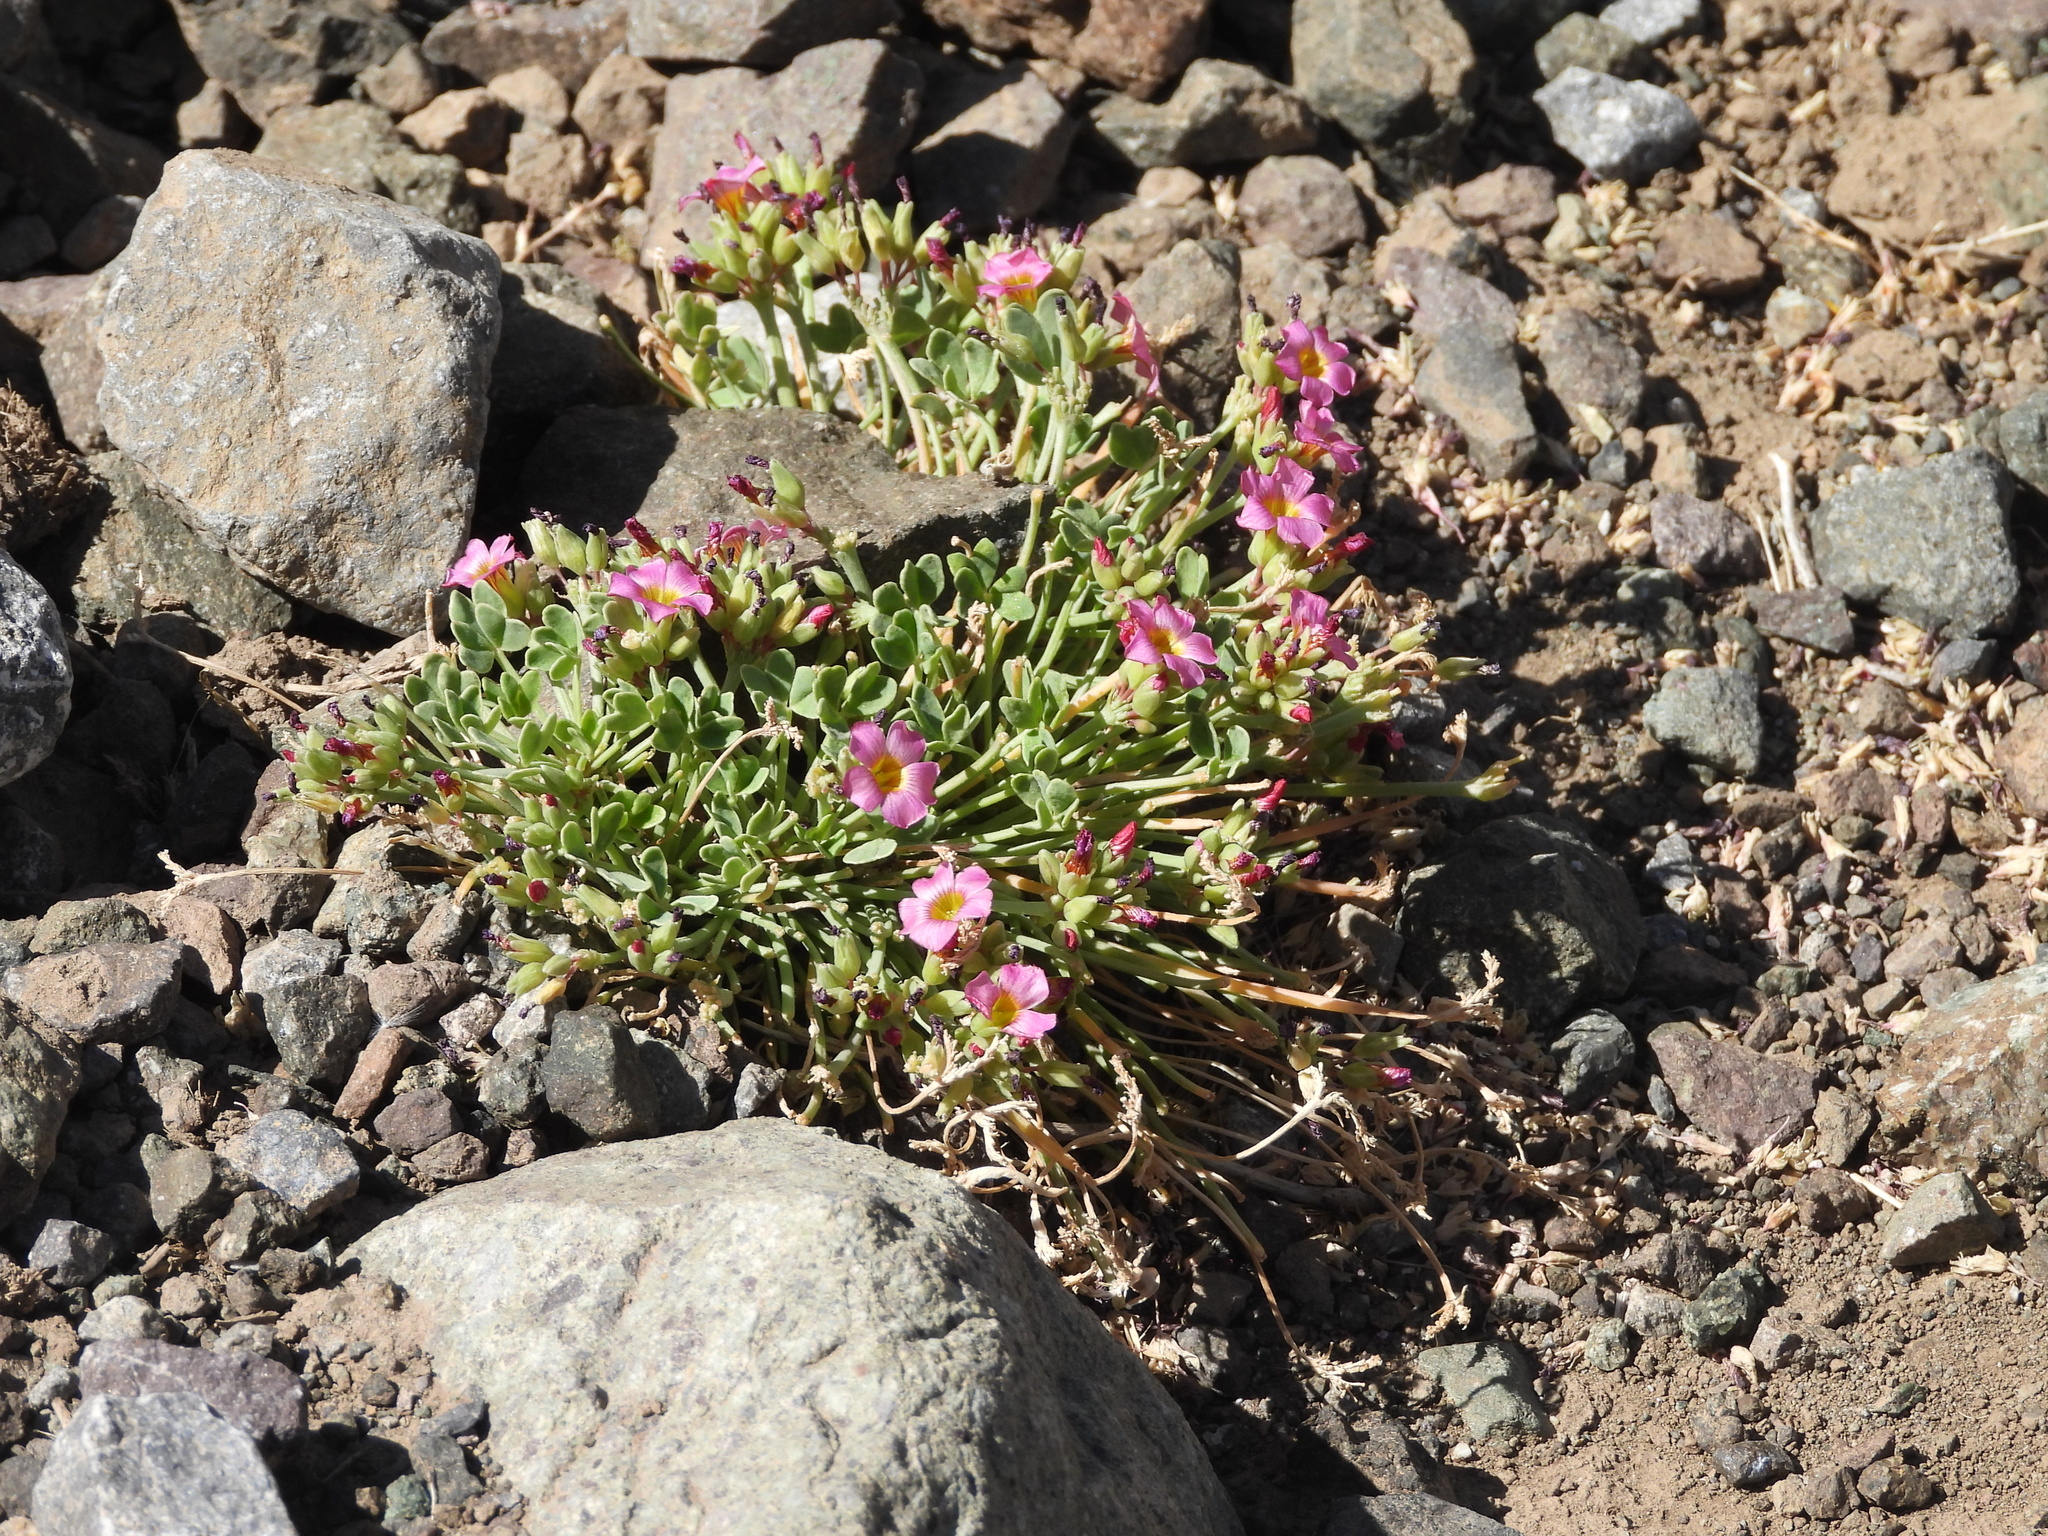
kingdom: Plantae
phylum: Tracheophyta
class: Magnoliopsida
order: Oxalidales
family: Oxalidaceae
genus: Oxalis
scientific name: Oxalis squamata
